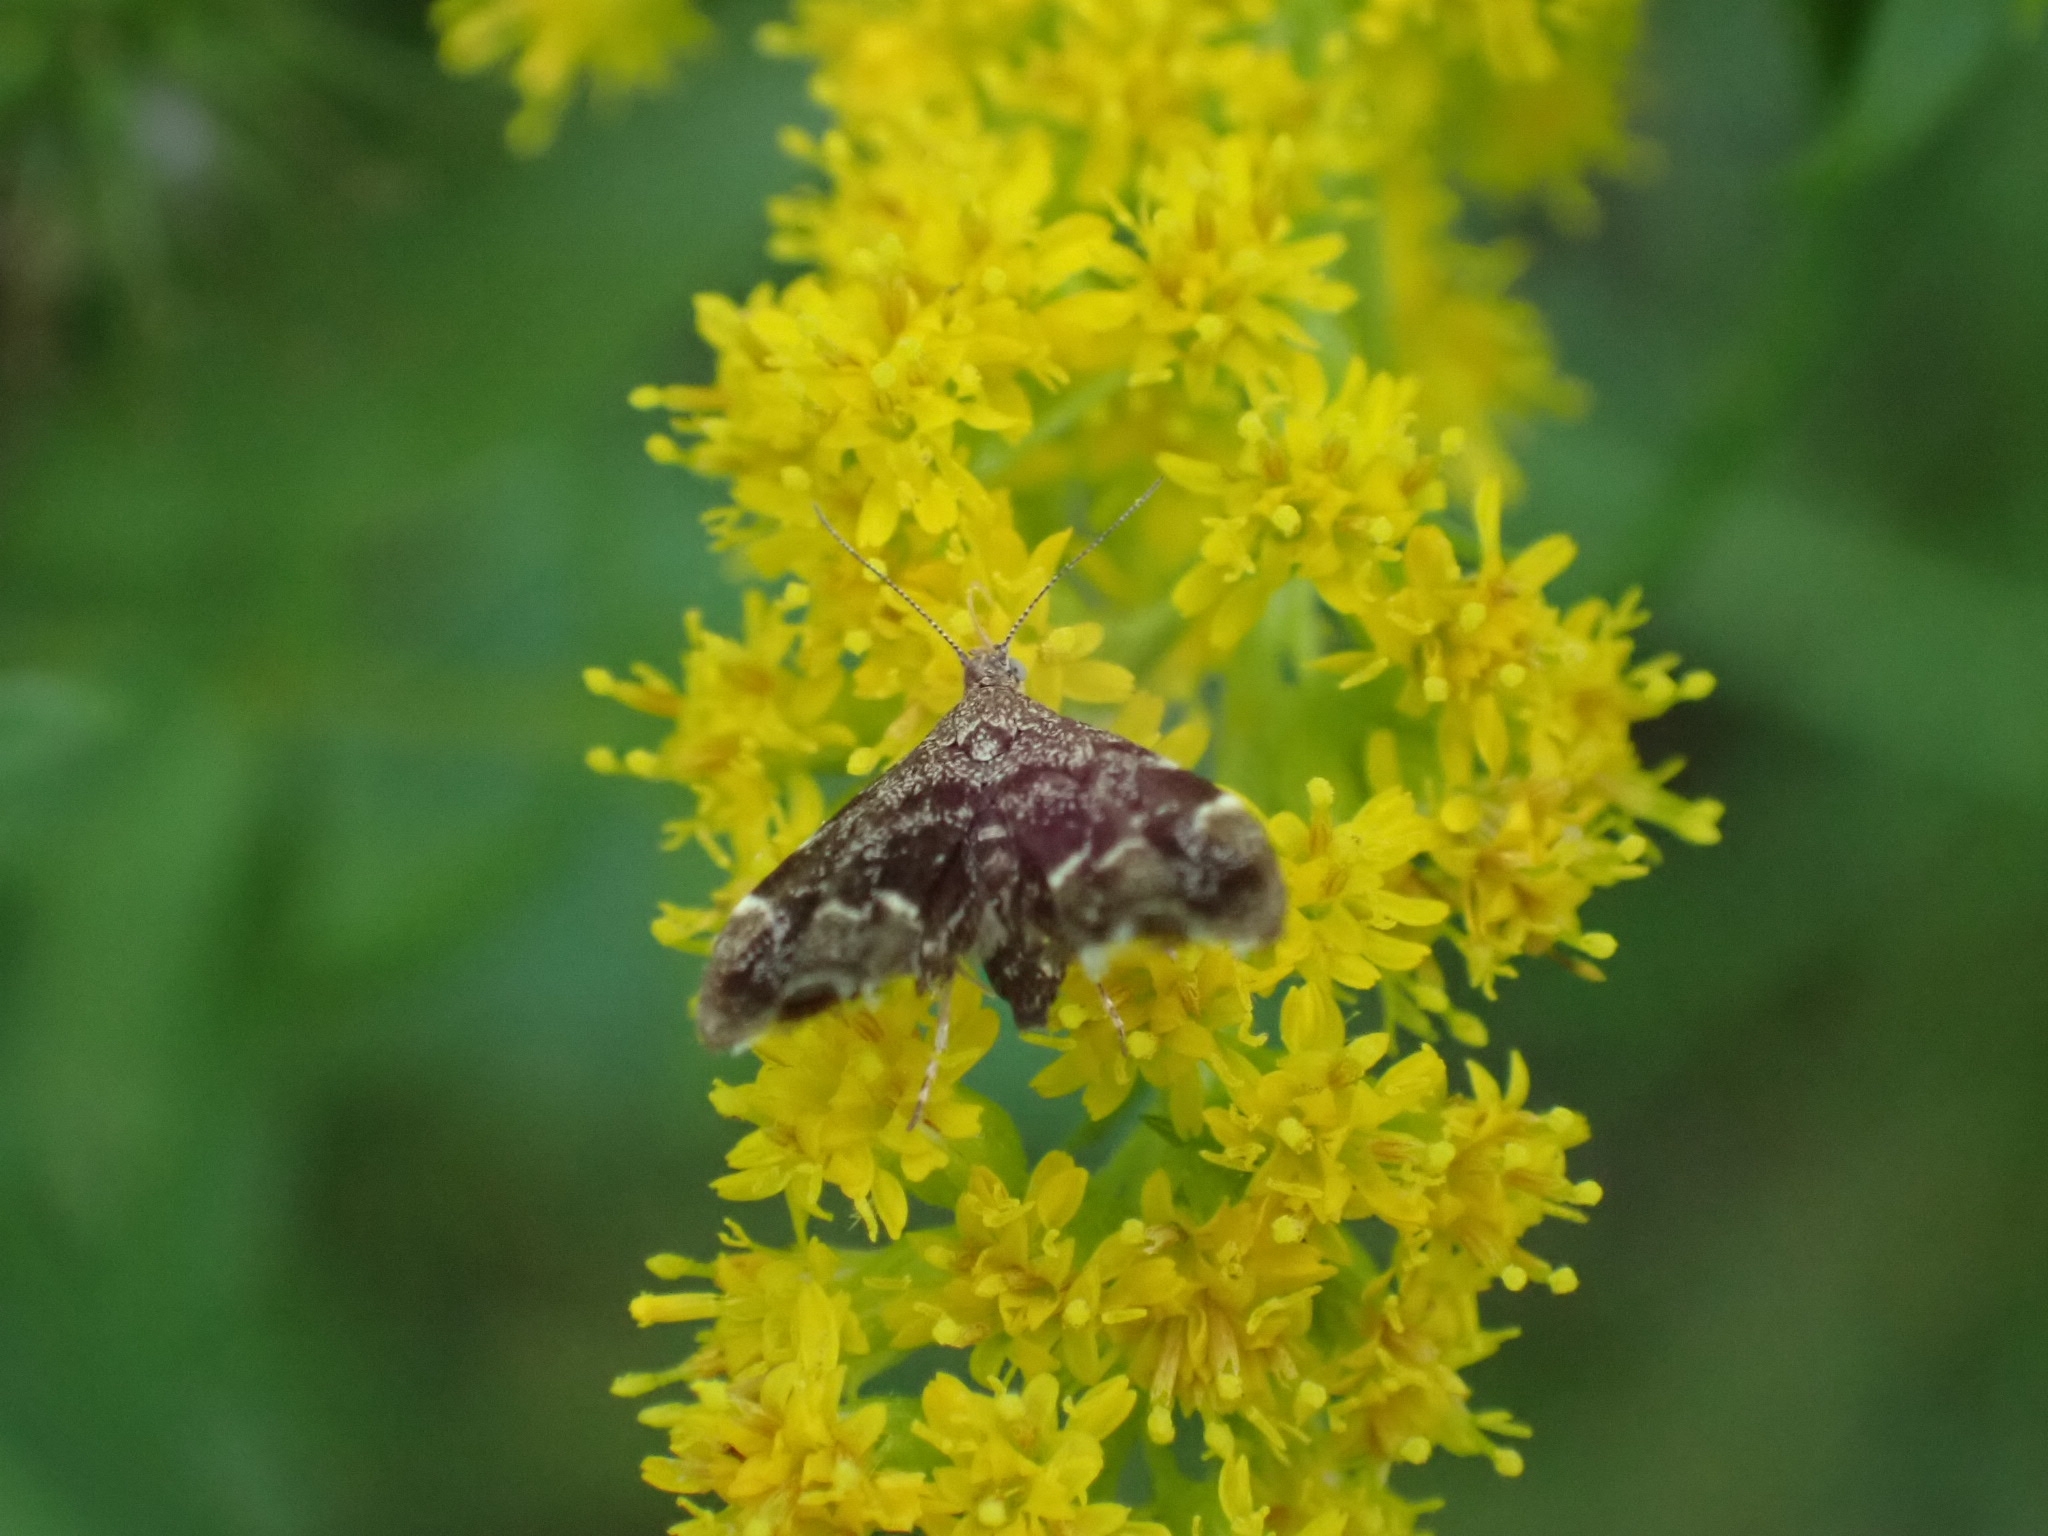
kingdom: Animalia
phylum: Arthropoda
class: Insecta
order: Lepidoptera
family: Choreutidae
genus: Anthophila
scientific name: Anthophila fabriciana
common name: Nettle-tap
